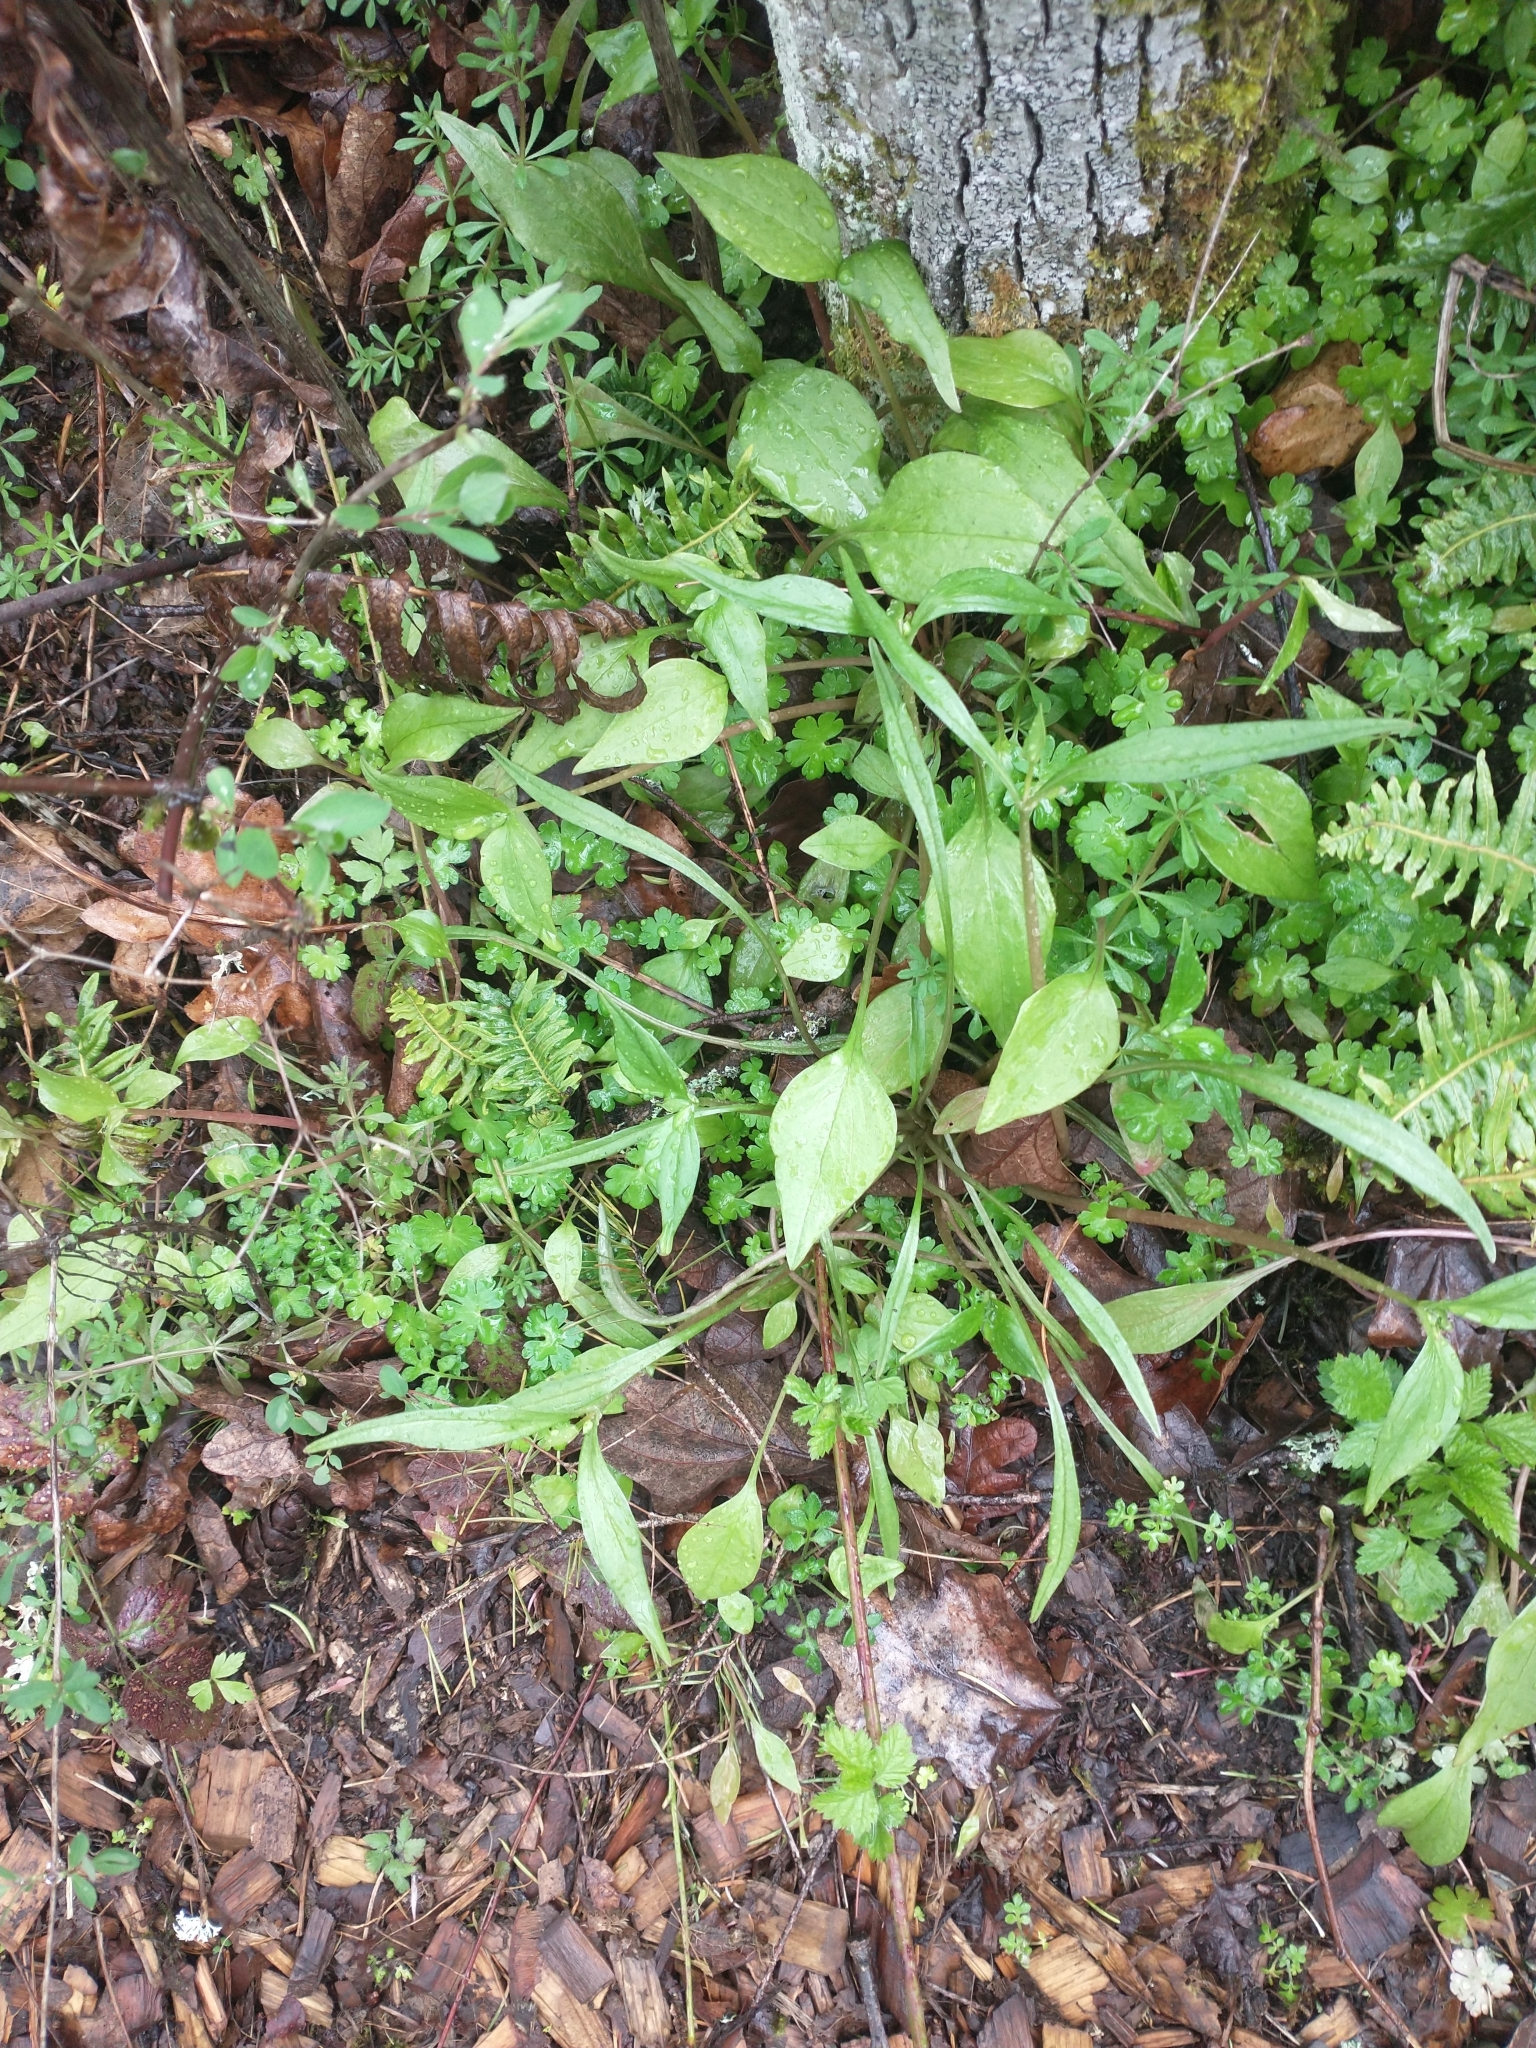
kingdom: Plantae
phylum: Tracheophyta
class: Magnoliopsida
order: Caryophyllales
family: Montiaceae
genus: Claytonia
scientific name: Claytonia sibirica
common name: Pink purslane
